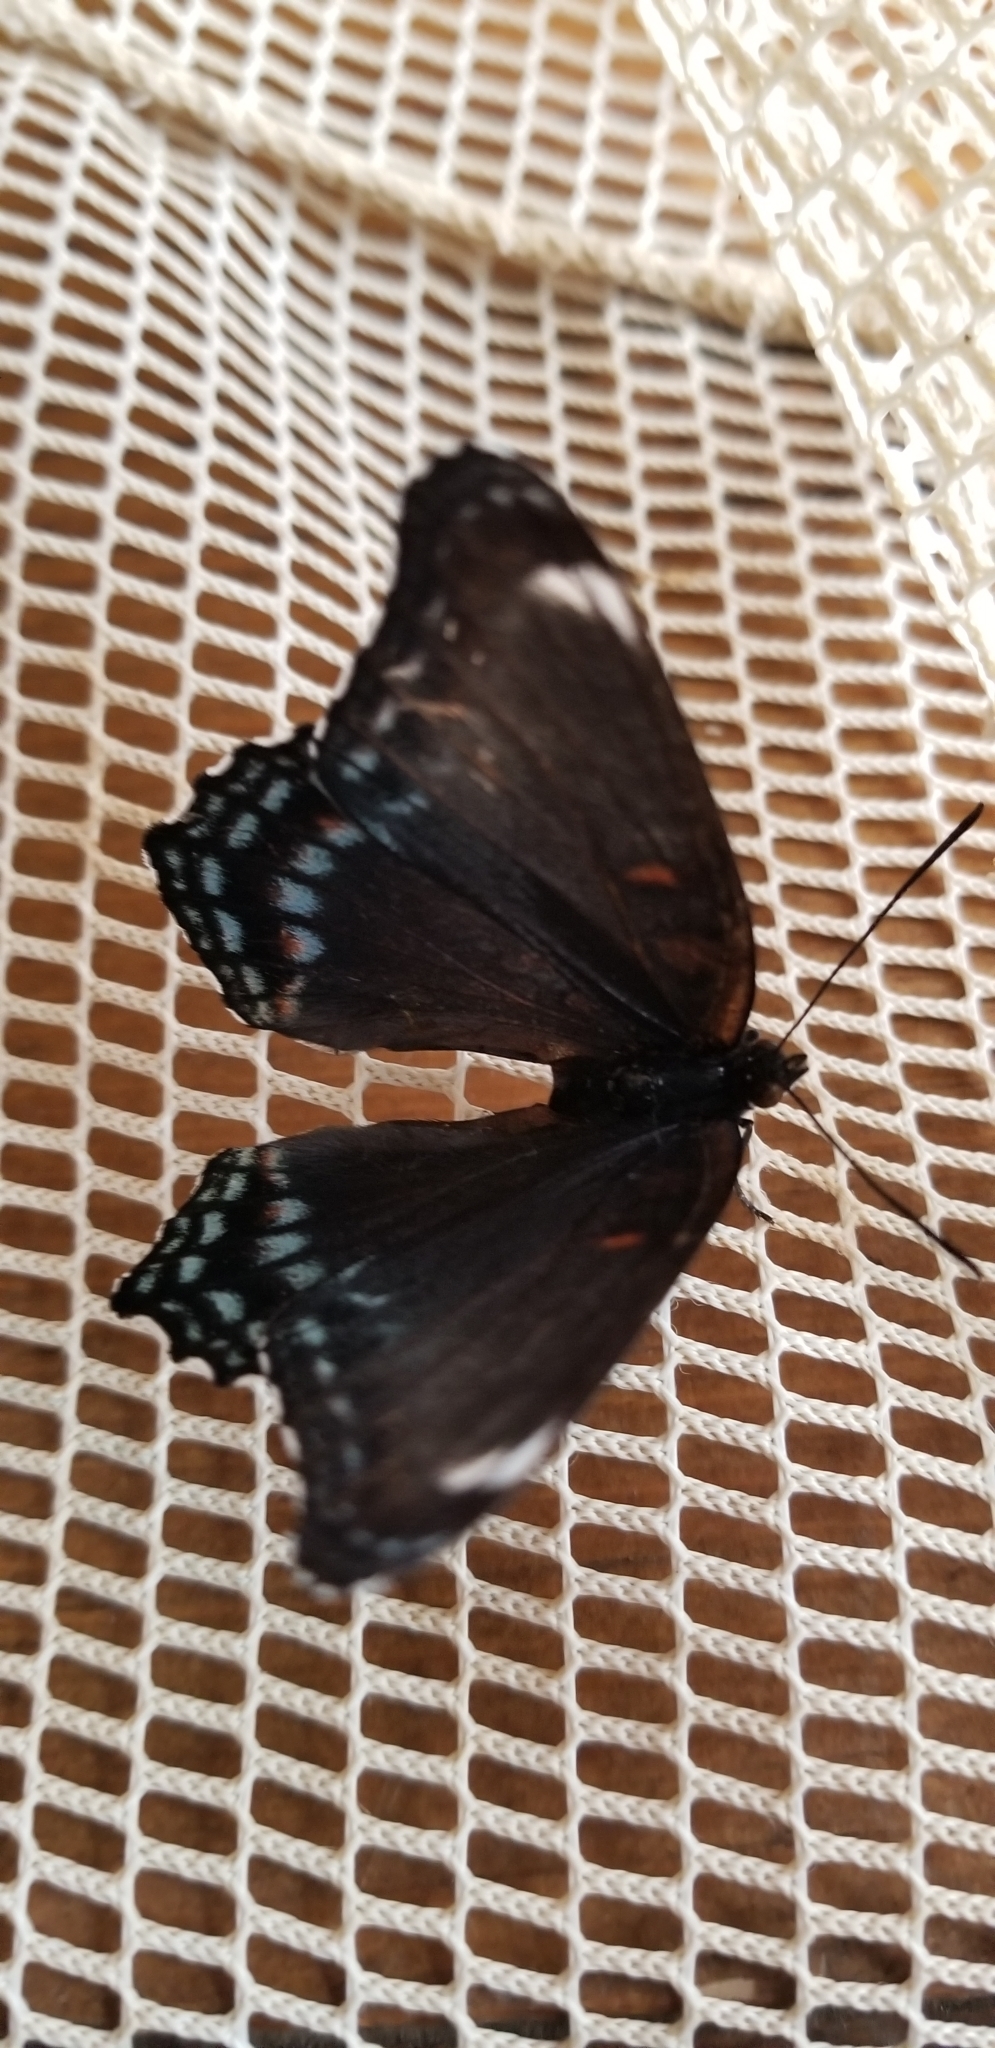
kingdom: Animalia
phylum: Arthropoda
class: Insecta
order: Lepidoptera
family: Nymphalidae
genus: Limenitis
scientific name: Limenitis astyanax
